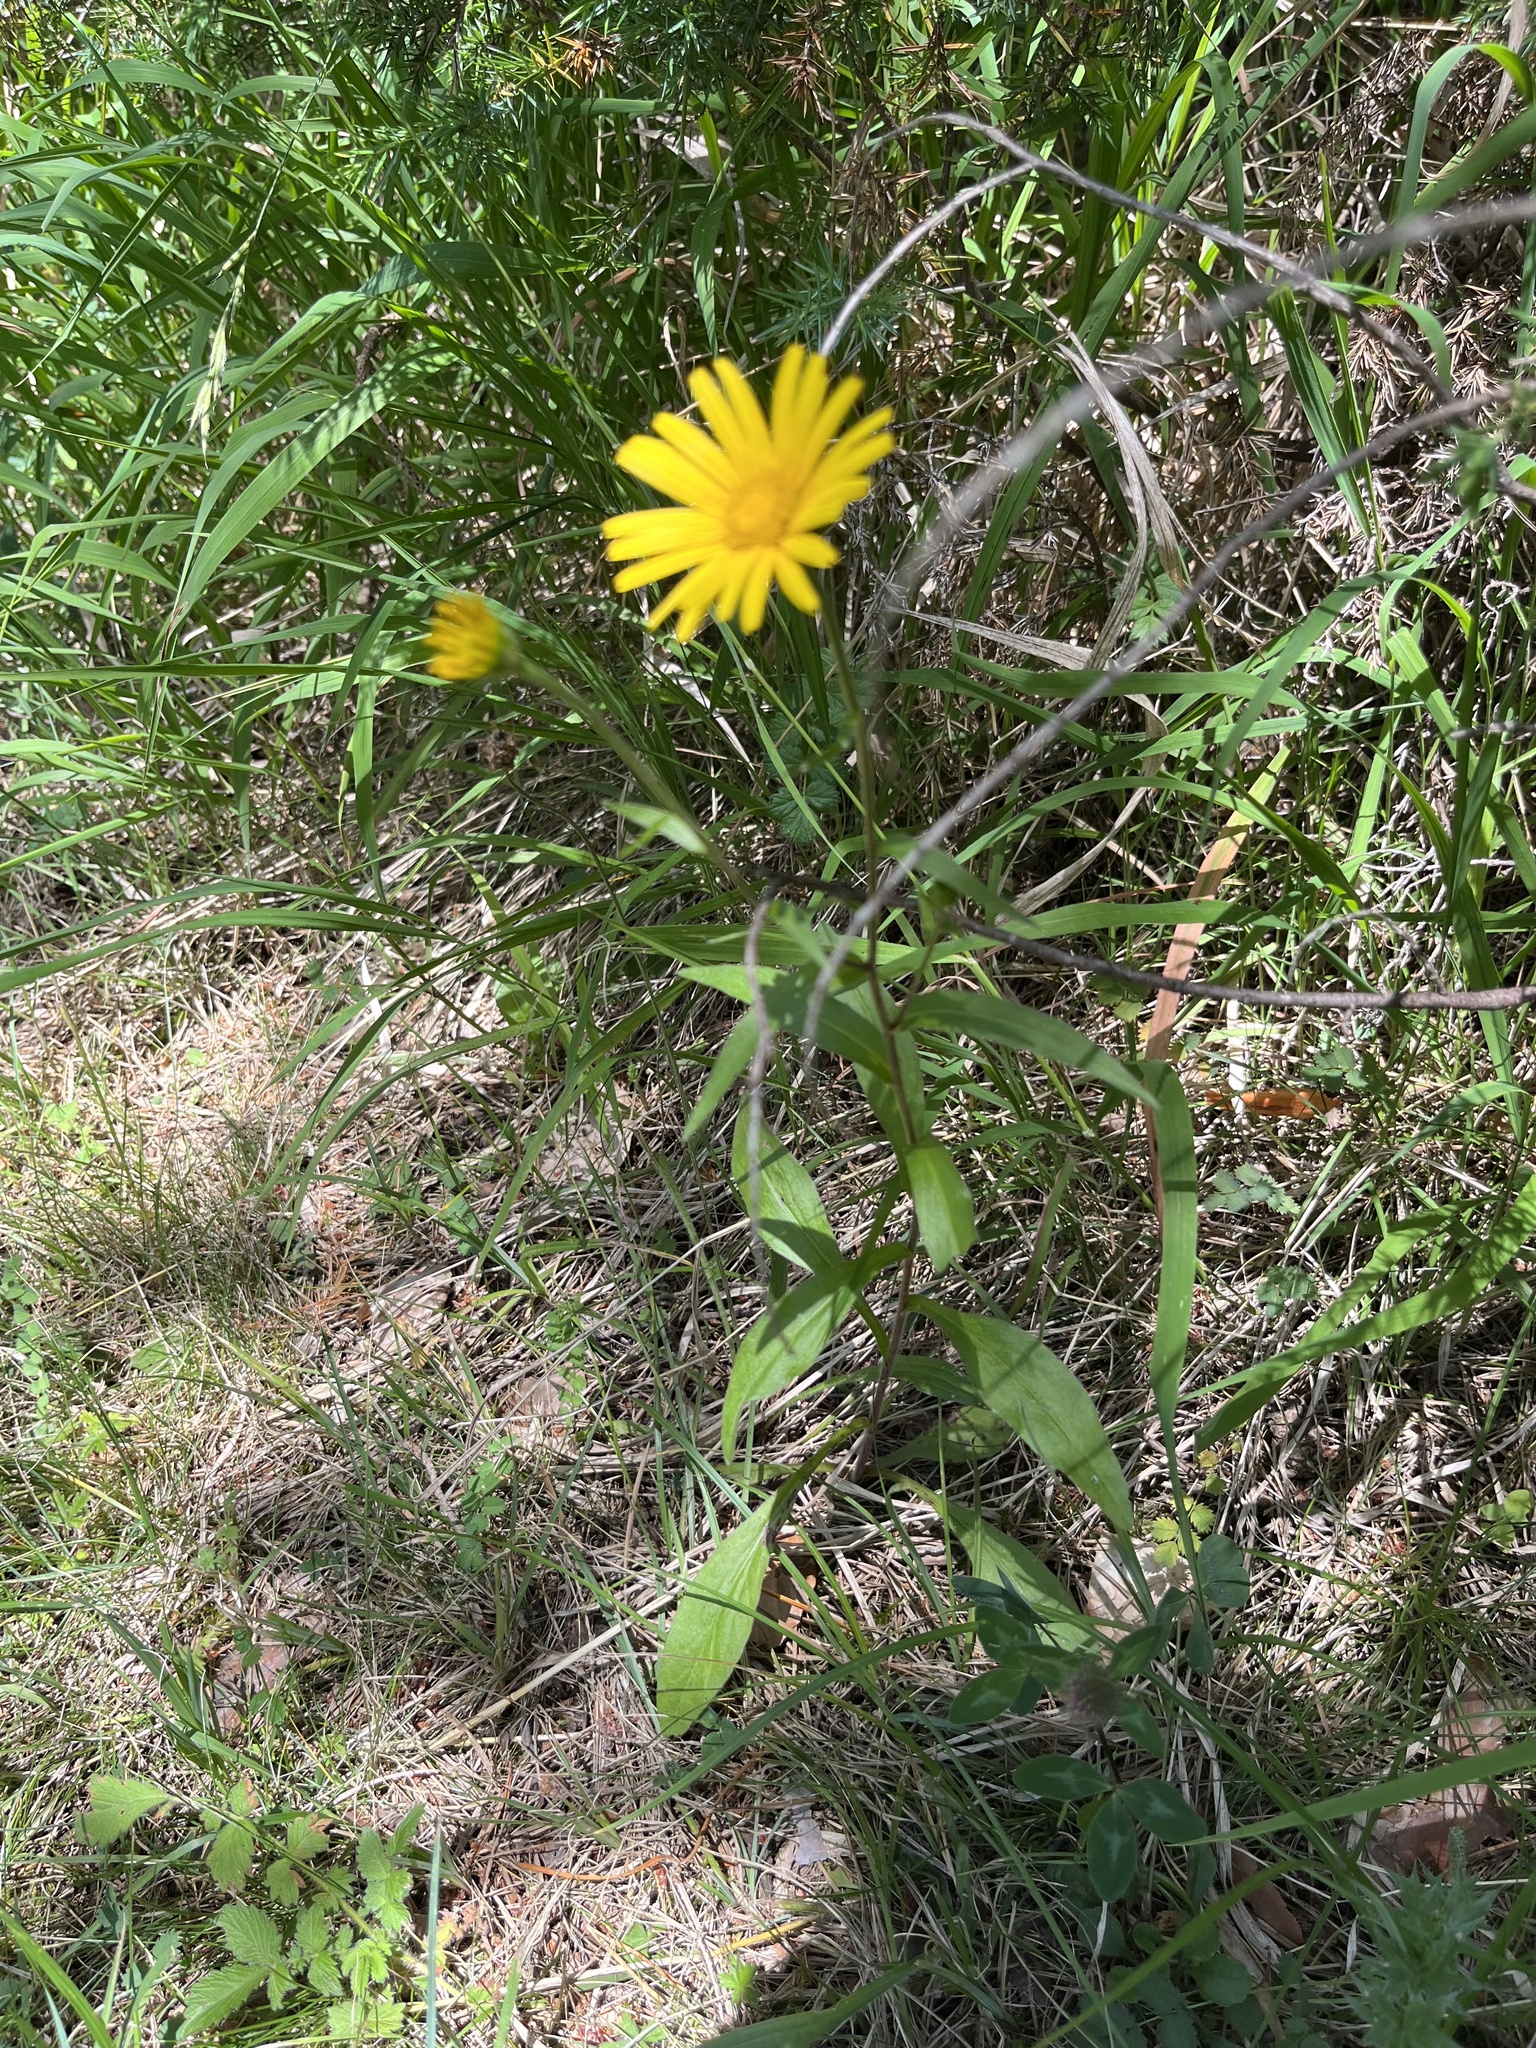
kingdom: Plantae
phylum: Tracheophyta
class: Magnoliopsida
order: Asterales
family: Asteraceae
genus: Buphthalmum
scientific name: Buphthalmum salicifolium
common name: Willow-leaved yellow-oxeye
